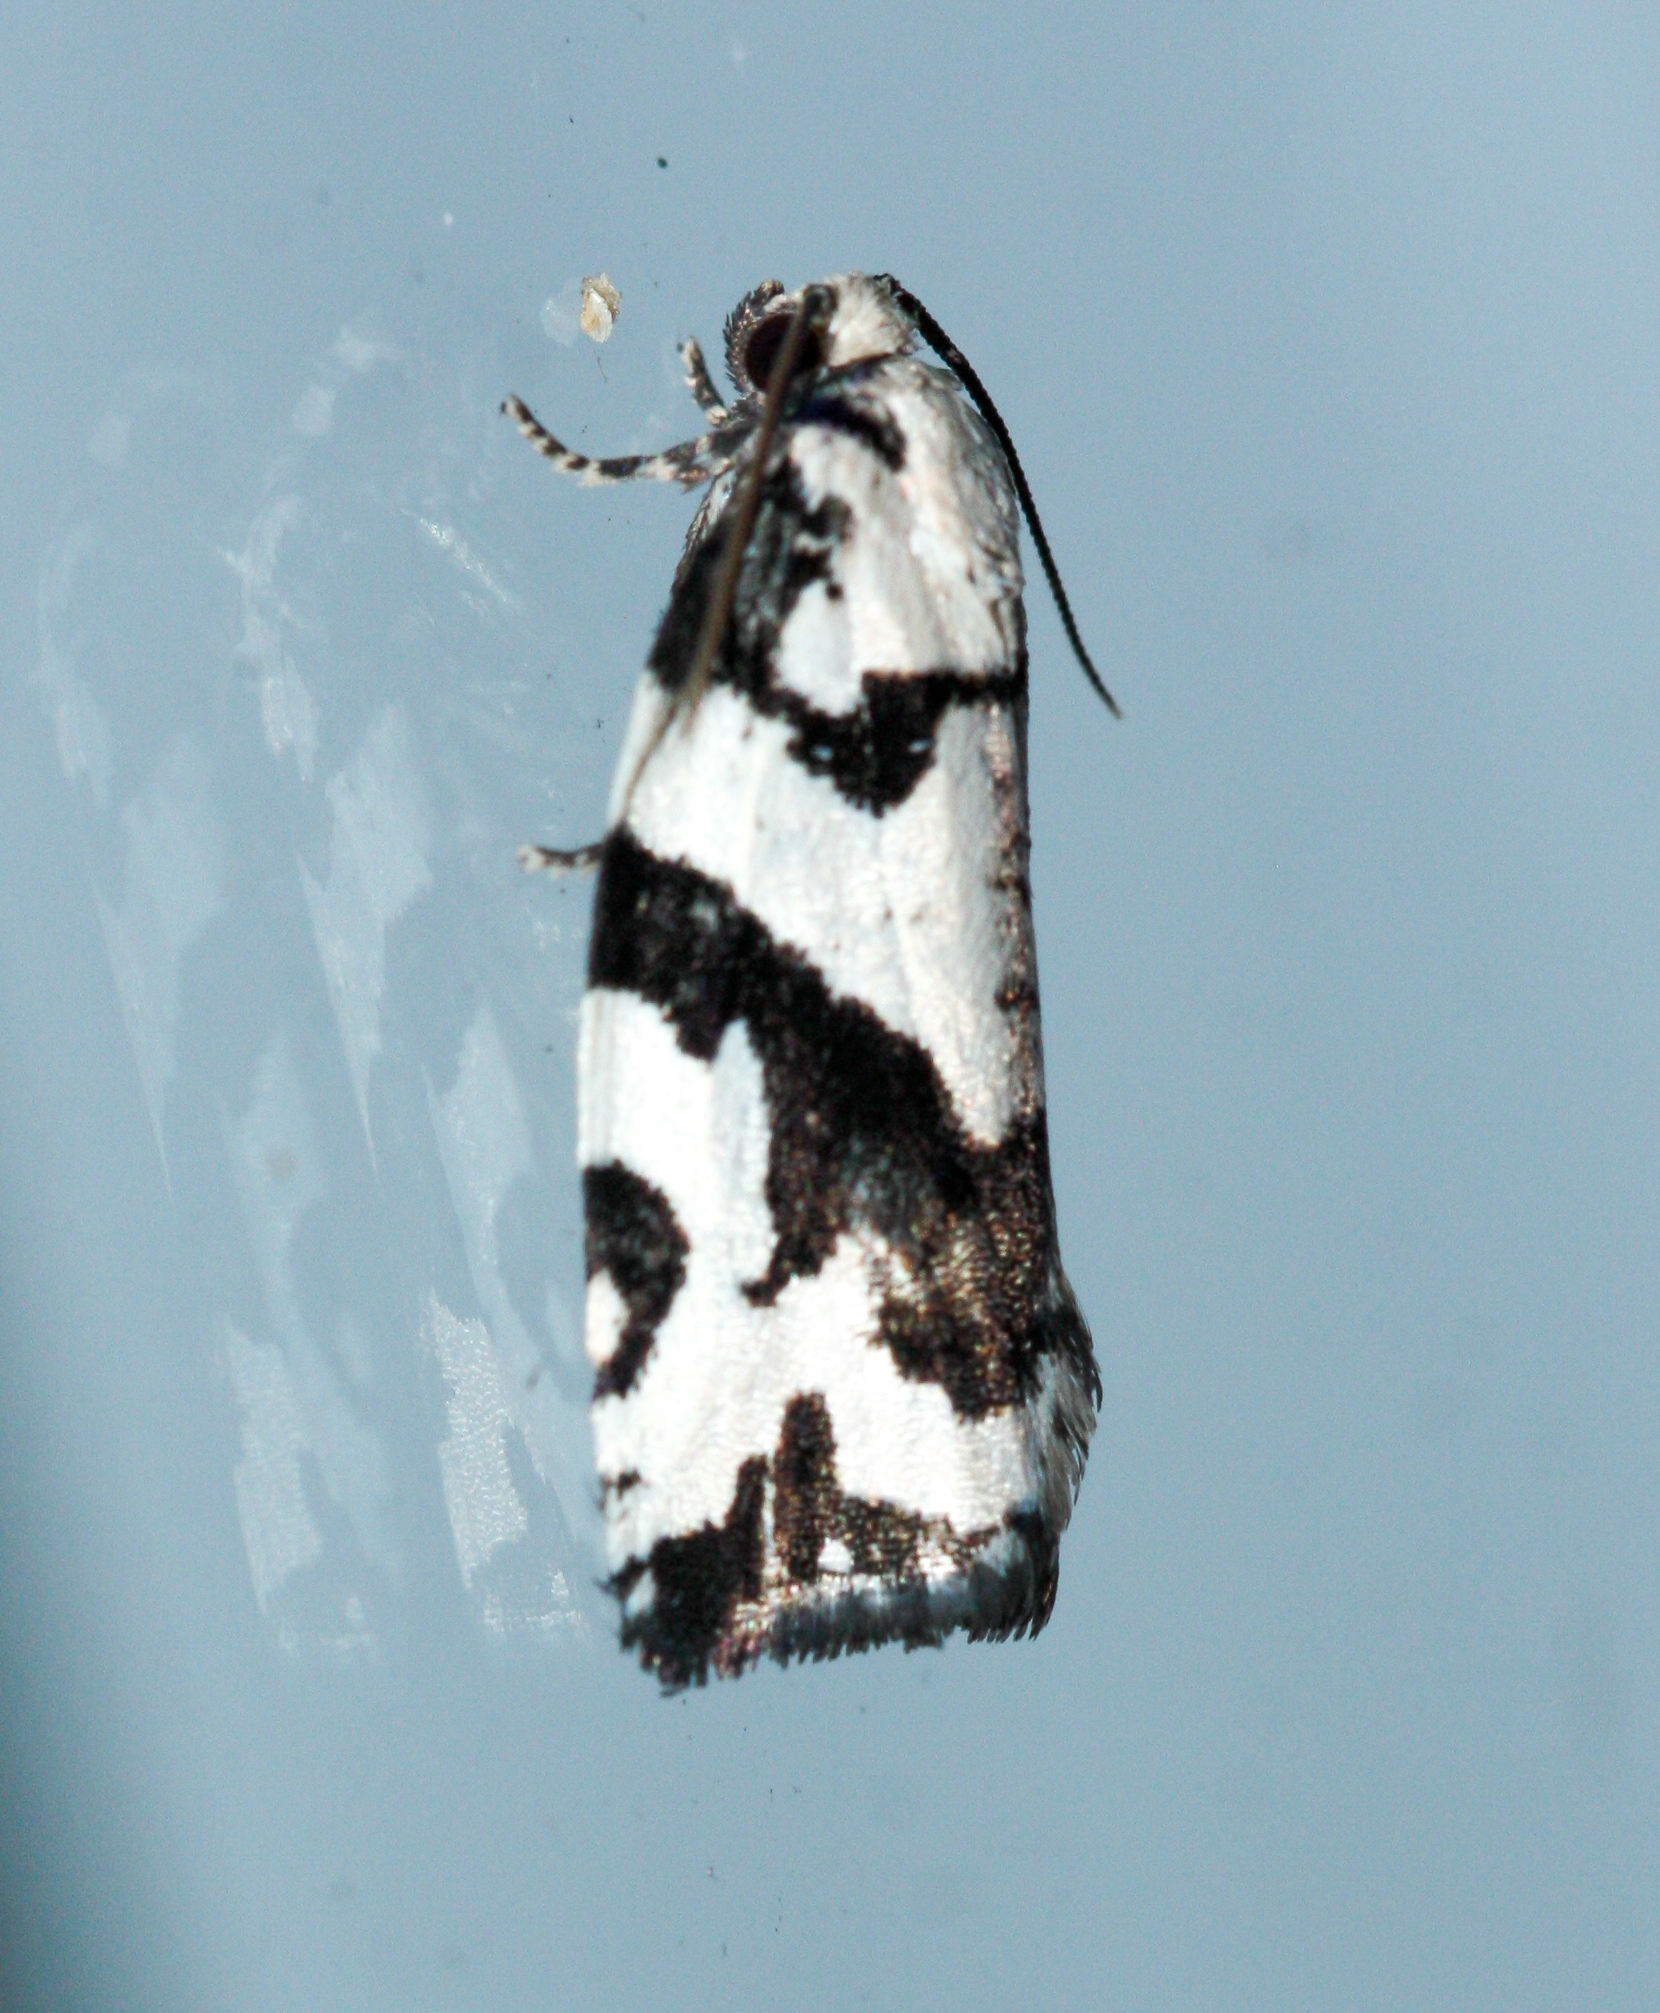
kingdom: Animalia
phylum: Arthropoda
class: Insecta
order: Lepidoptera
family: Tortricidae
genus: Archips
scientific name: Archips dissitana
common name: Boldly-marked archips moth
